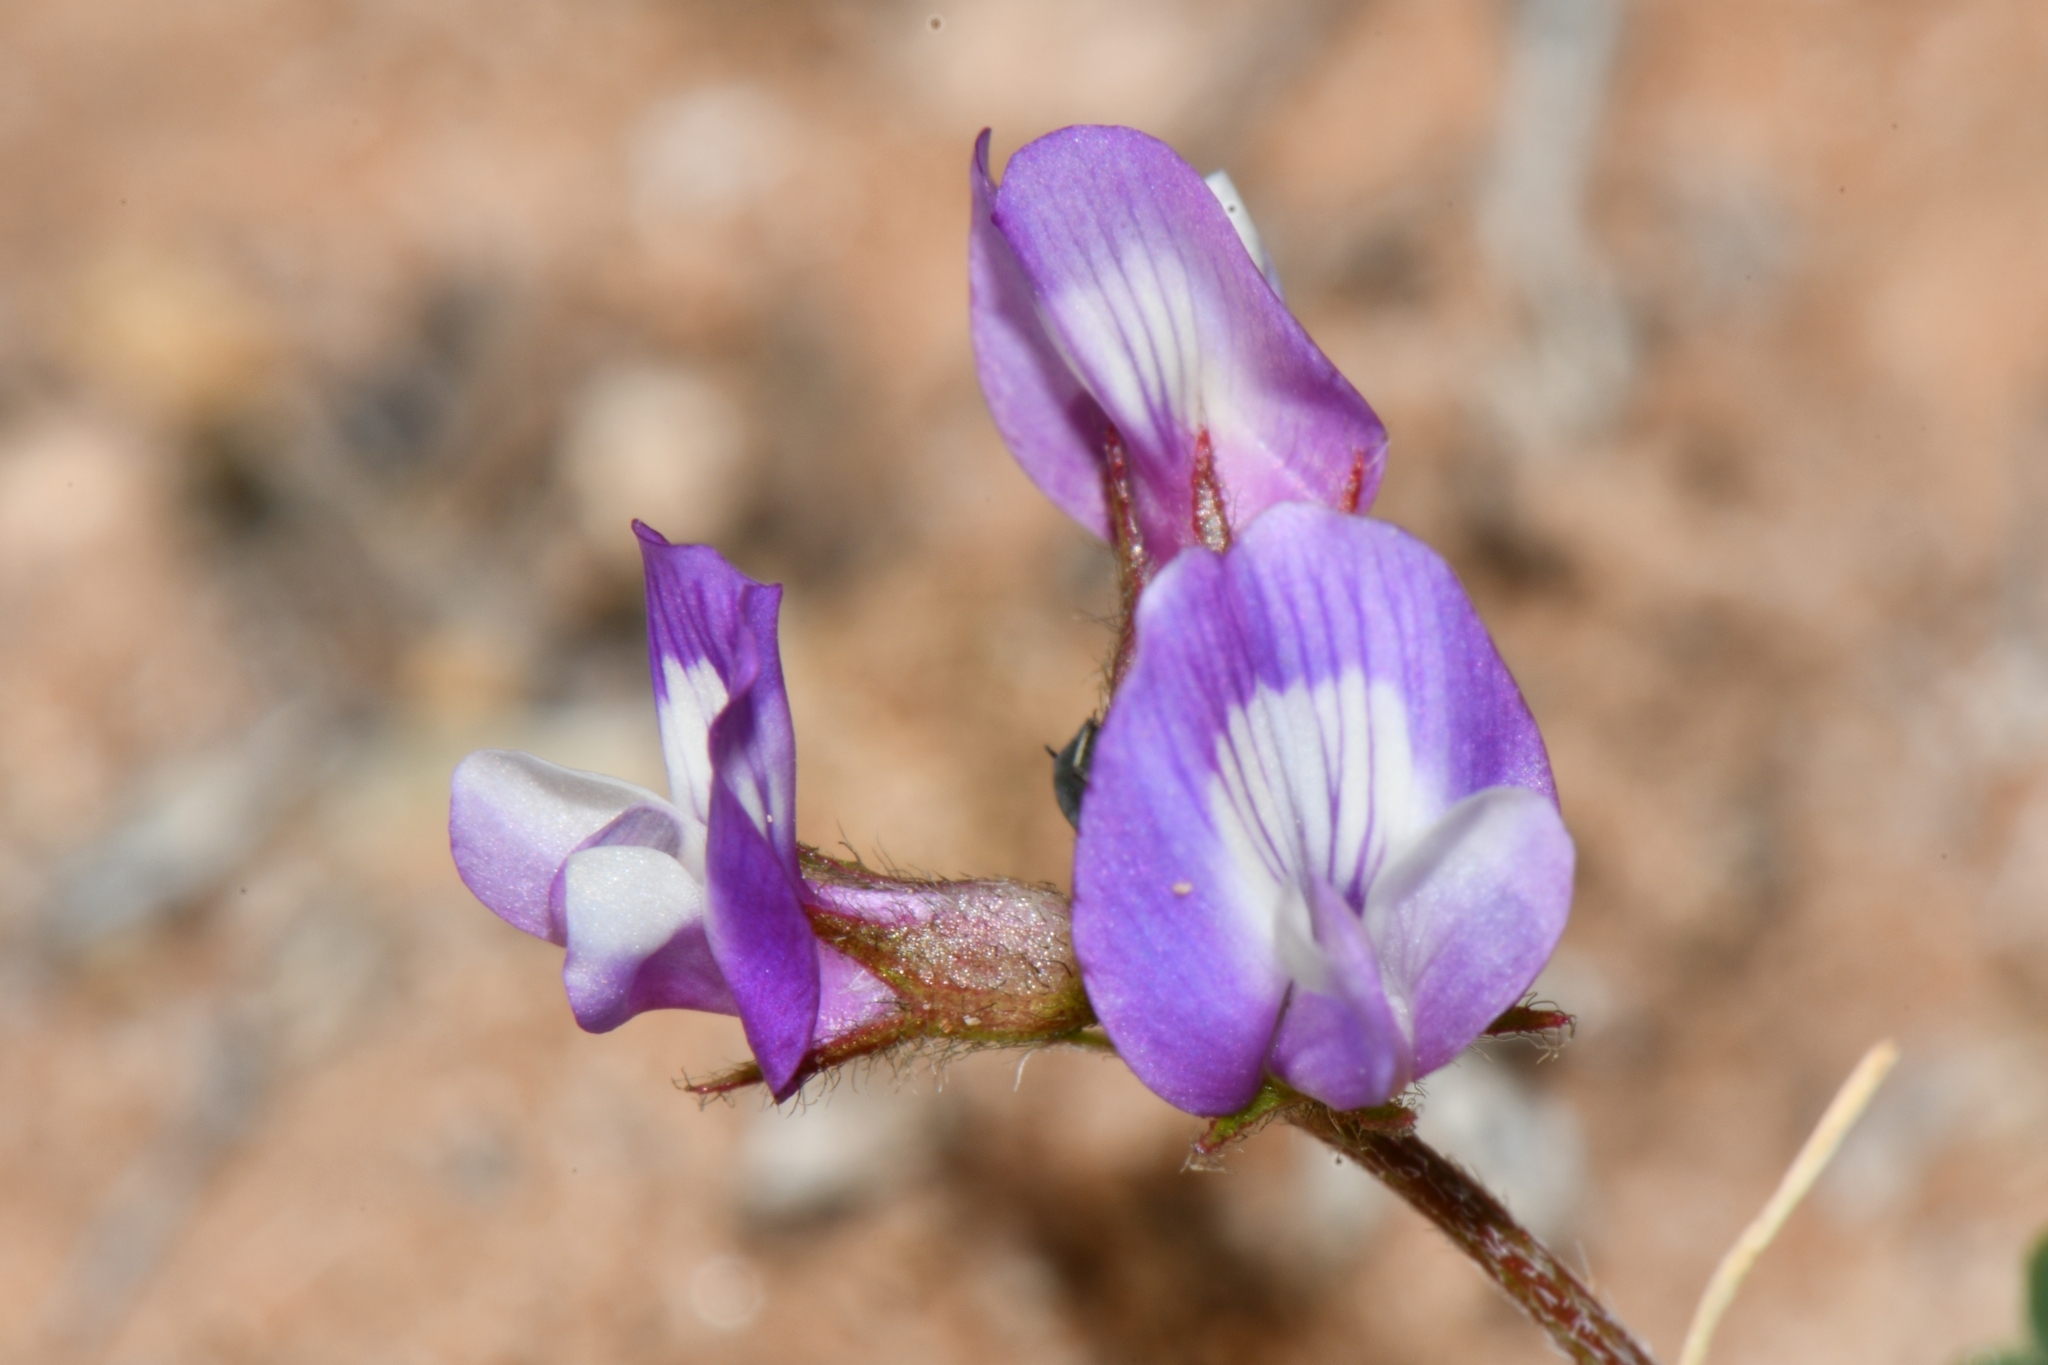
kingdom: Plantae
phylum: Tracheophyta
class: Magnoliopsida
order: Fabales
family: Fabaceae
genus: Astragalus
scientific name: Astragalus nuttallianus
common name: Smallflowered milkvetch
